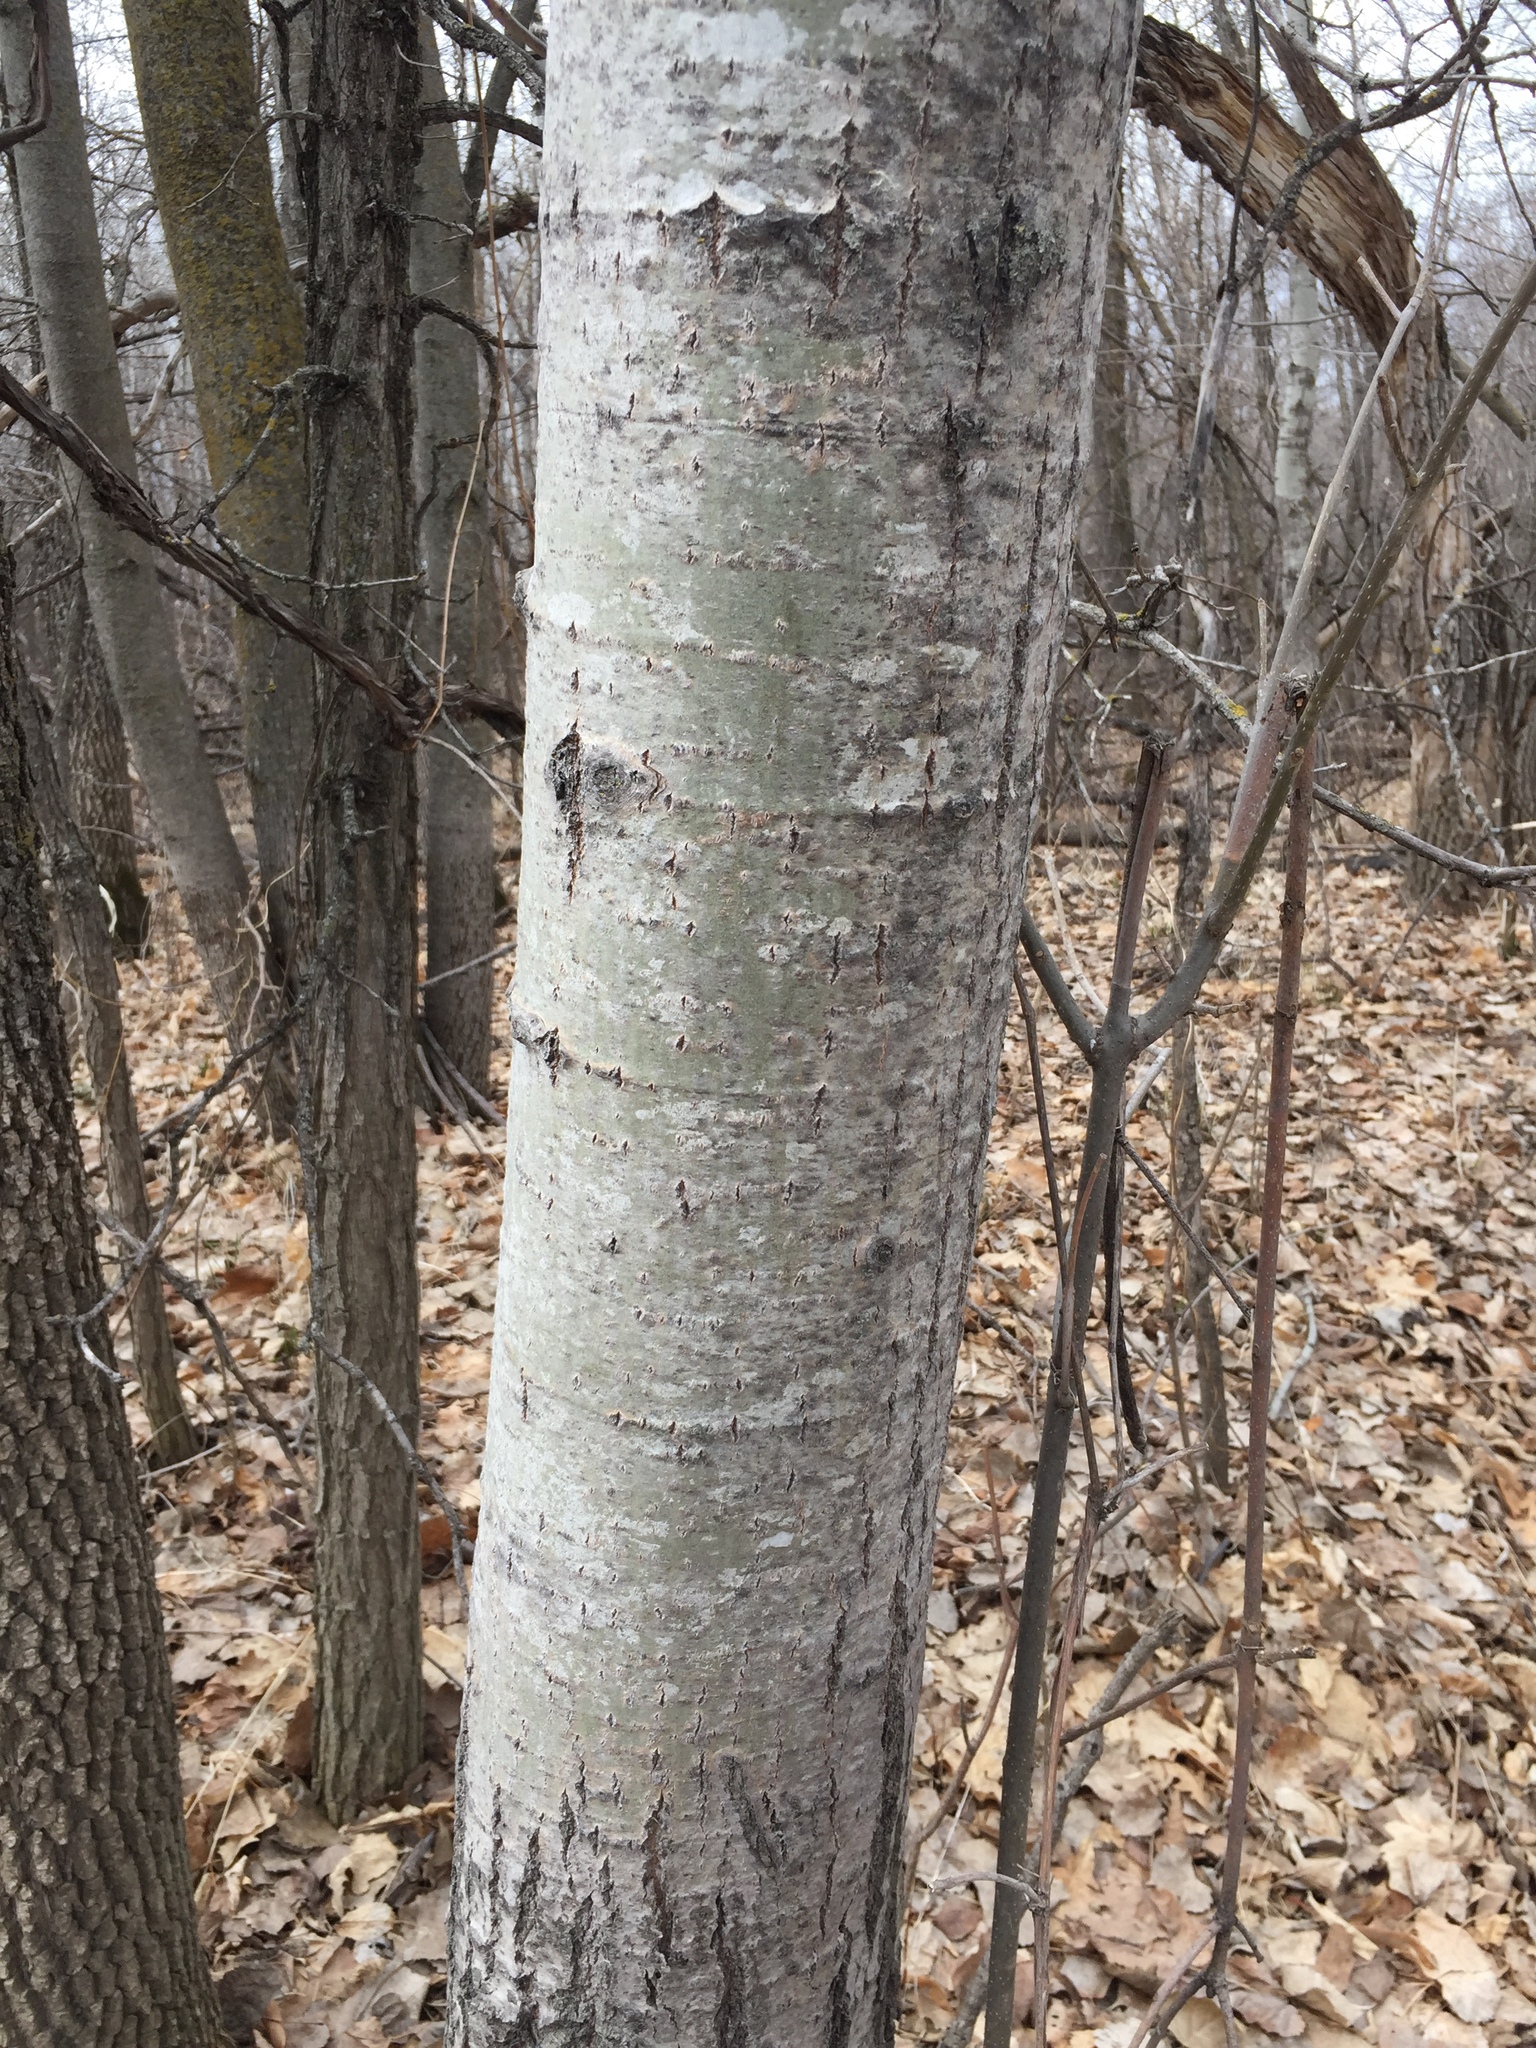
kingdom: Plantae
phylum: Tracheophyta
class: Magnoliopsida
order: Malpighiales
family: Salicaceae
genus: Populus
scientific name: Populus tremuloides
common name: Quaking aspen
